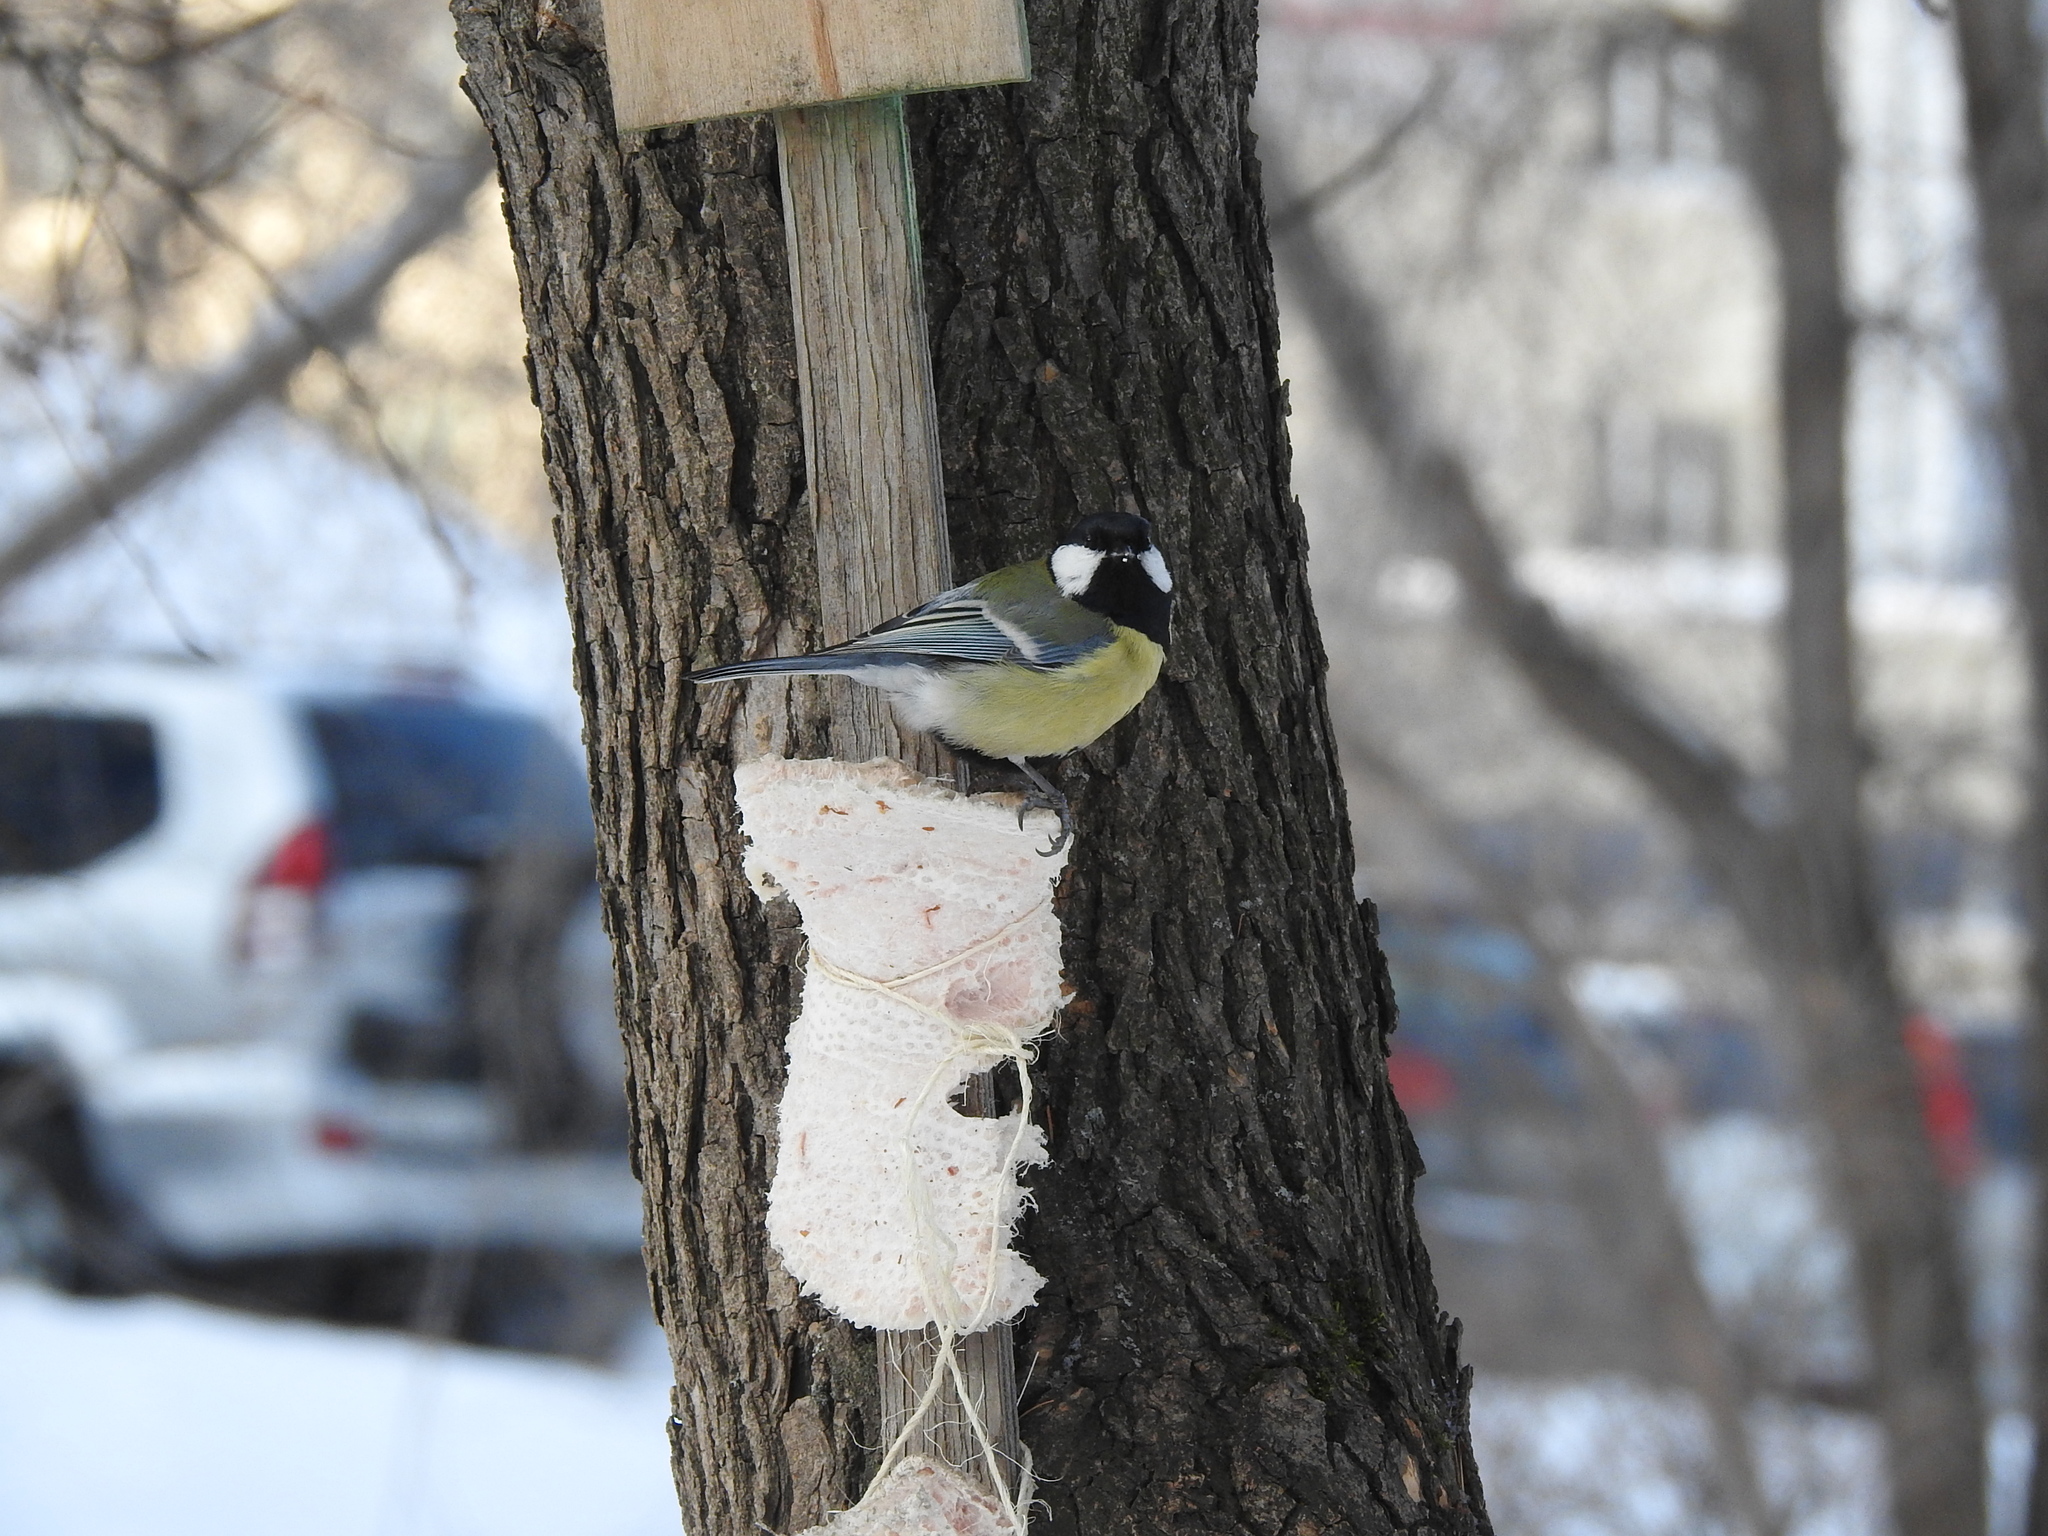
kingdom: Animalia
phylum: Chordata
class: Aves
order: Passeriformes
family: Paridae
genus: Parus
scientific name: Parus major
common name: Great tit
